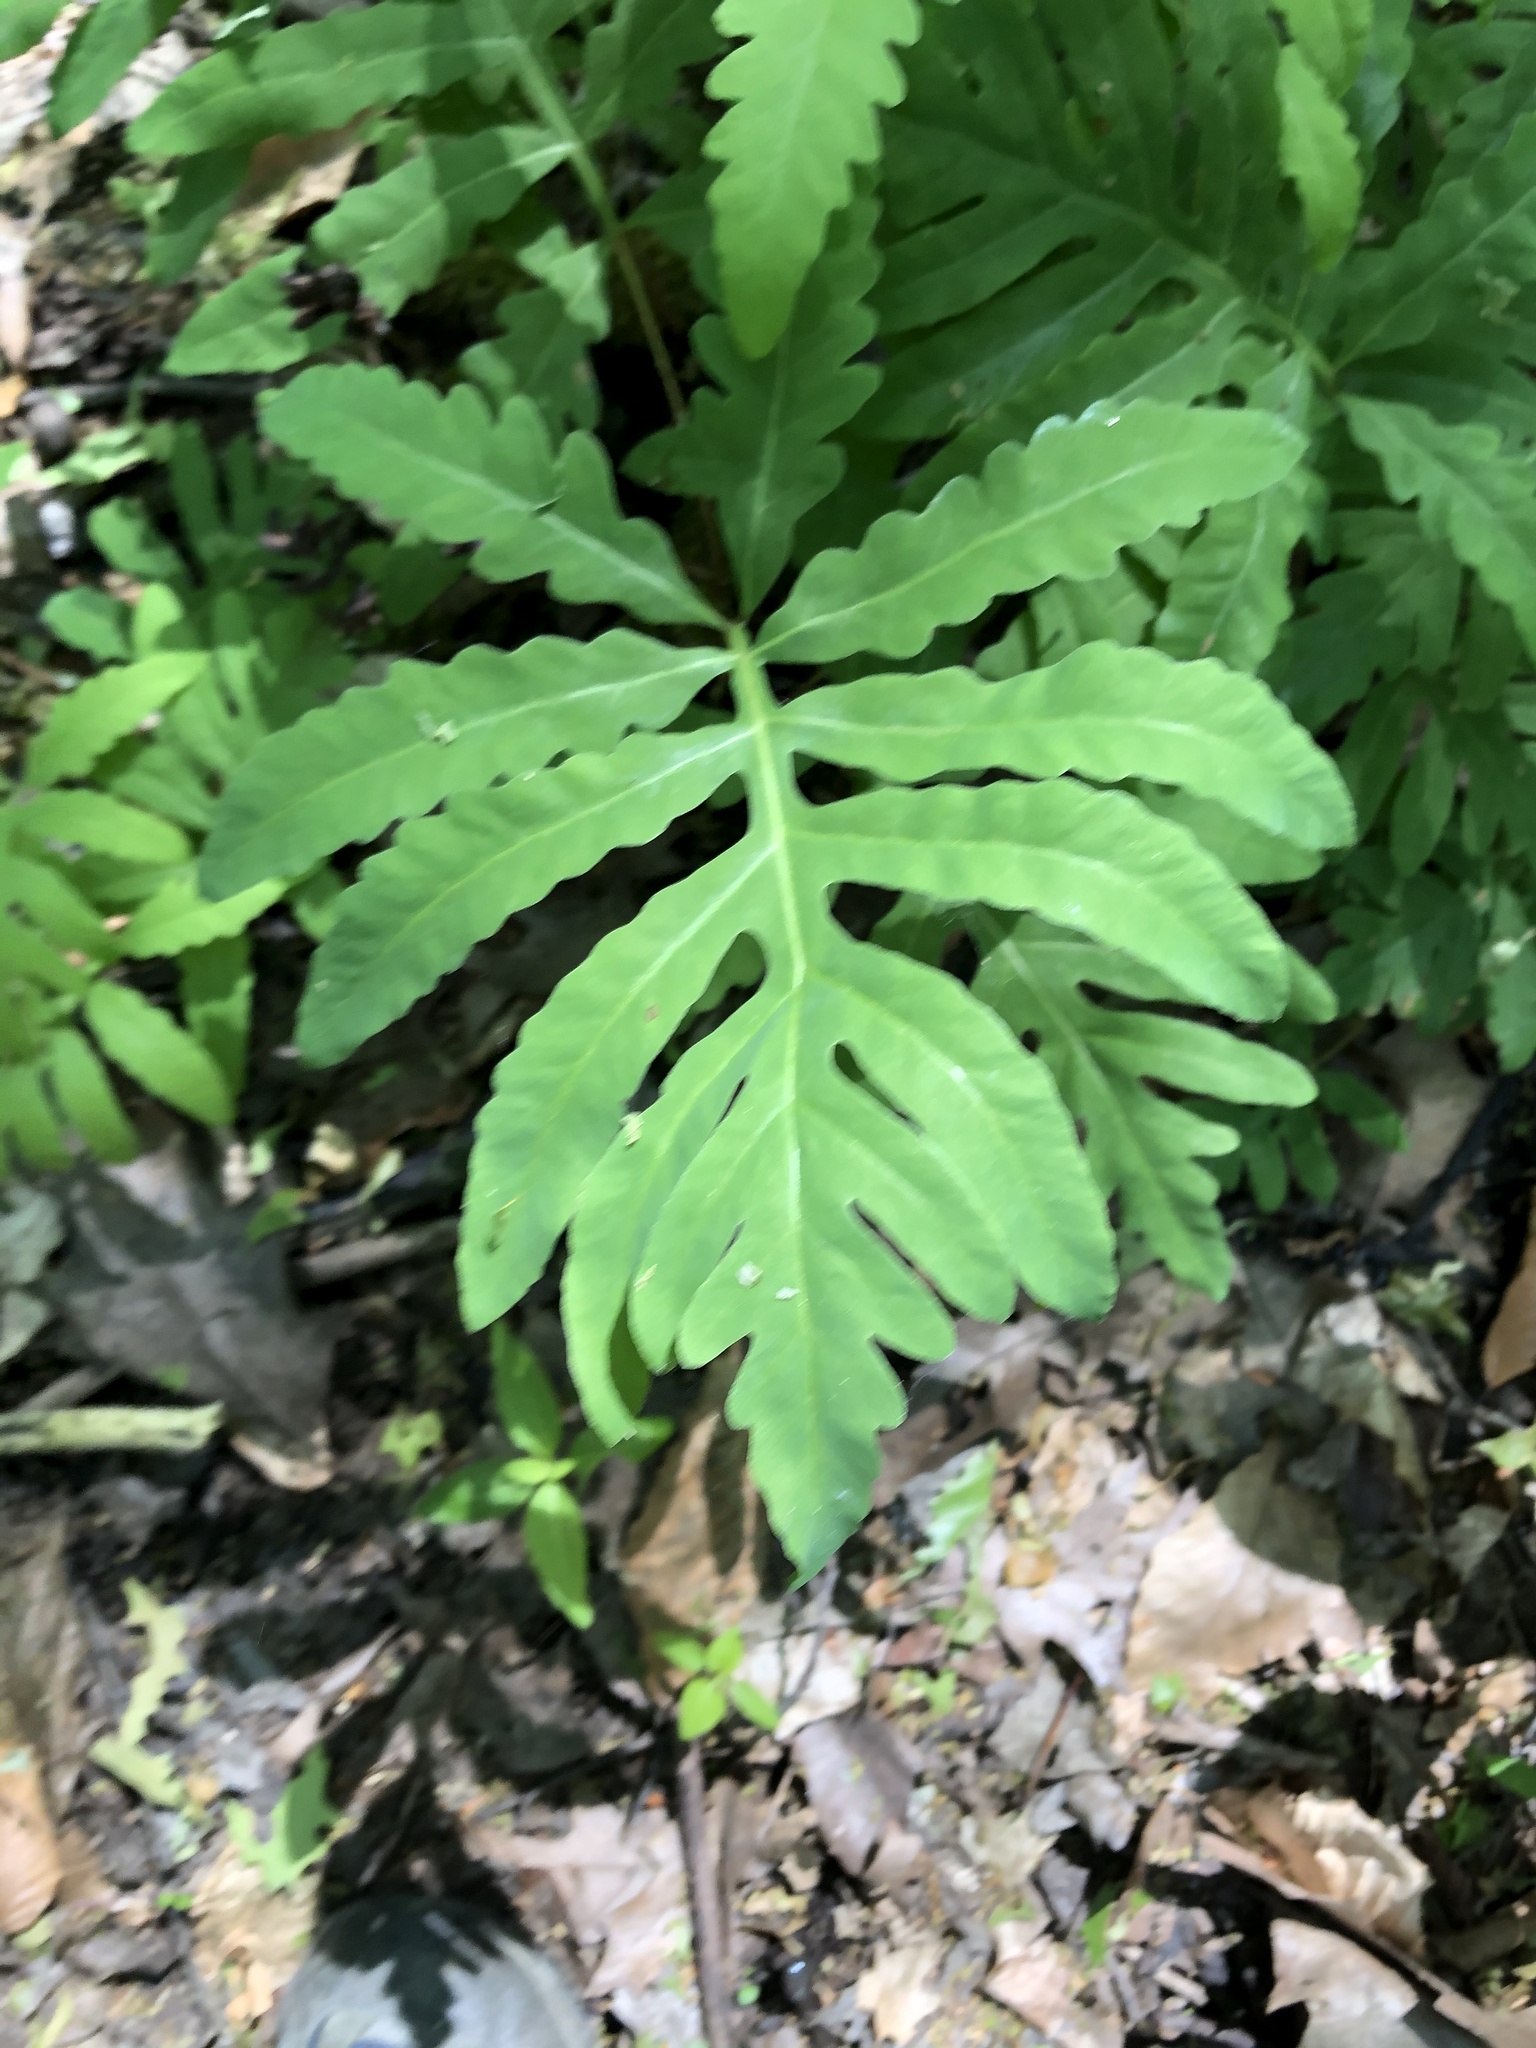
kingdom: Plantae
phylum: Tracheophyta
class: Polypodiopsida
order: Polypodiales
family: Onocleaceae
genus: Onoclea
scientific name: Onoclea sensibilis
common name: Sensitive fern
